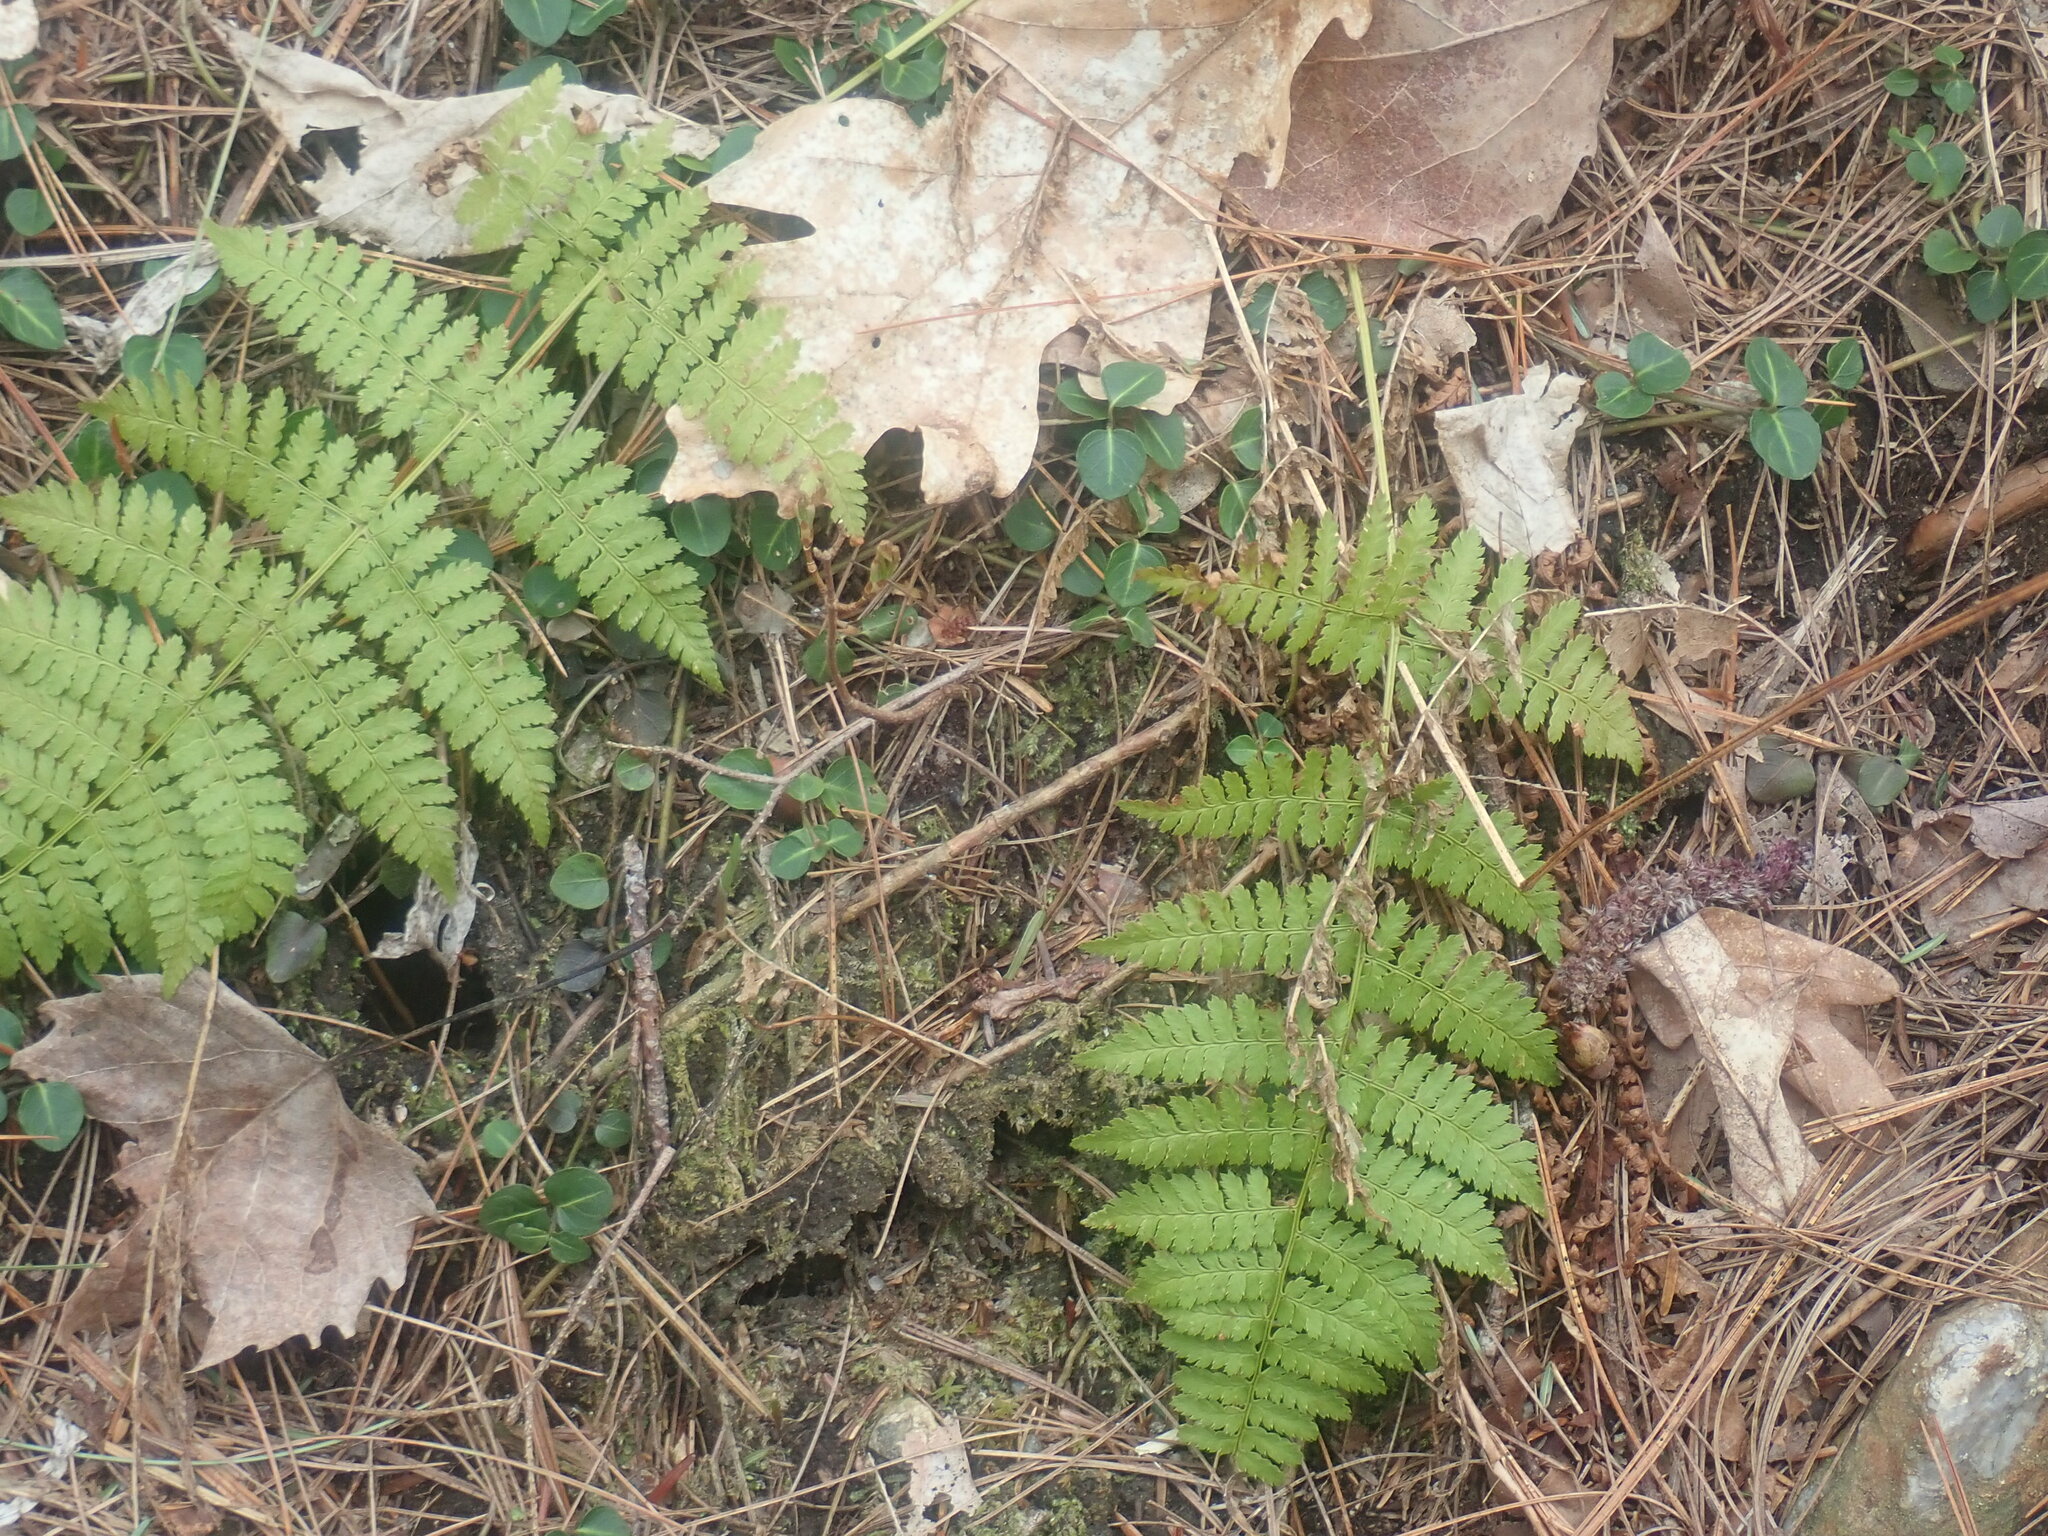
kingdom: Plantae
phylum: Tracheophyta
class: Polypodiopsida
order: Polypodiales
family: Dryopteridaceae
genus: Dryopteris
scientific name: Dryopteris intermedia
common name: Evergreen wood fern
